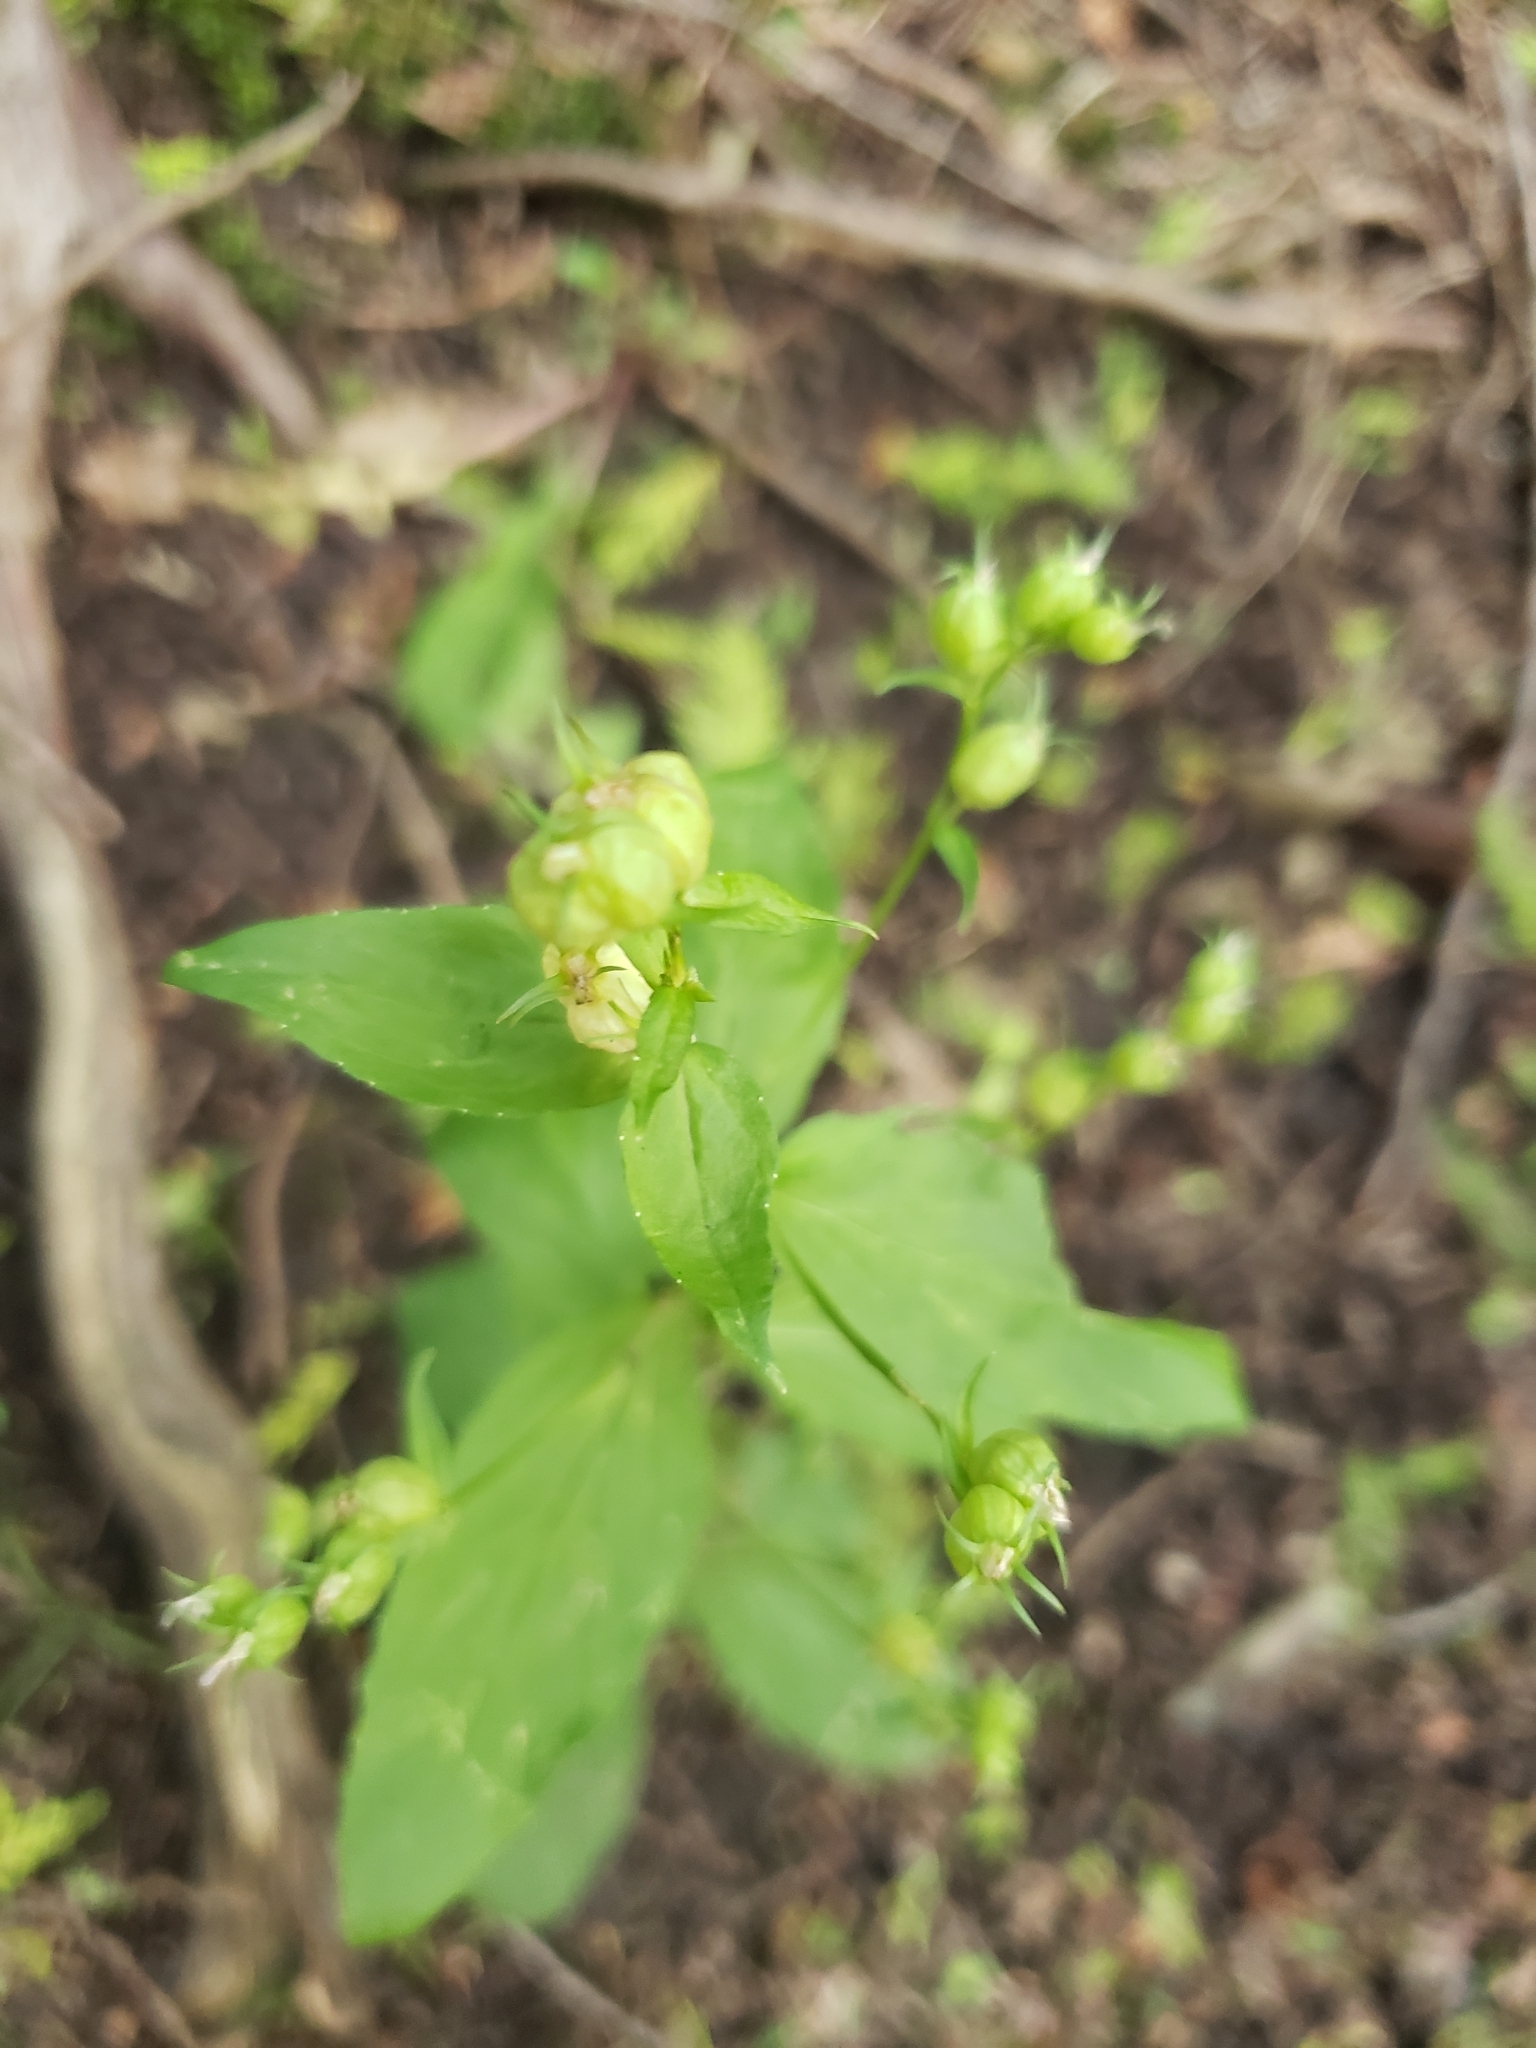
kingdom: Plantae
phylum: Tracheophyta
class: Magnoliopsida
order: Asterales
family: Campanulaceae
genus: Lobelia
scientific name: Lobelia inflata
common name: Indian tobacco
